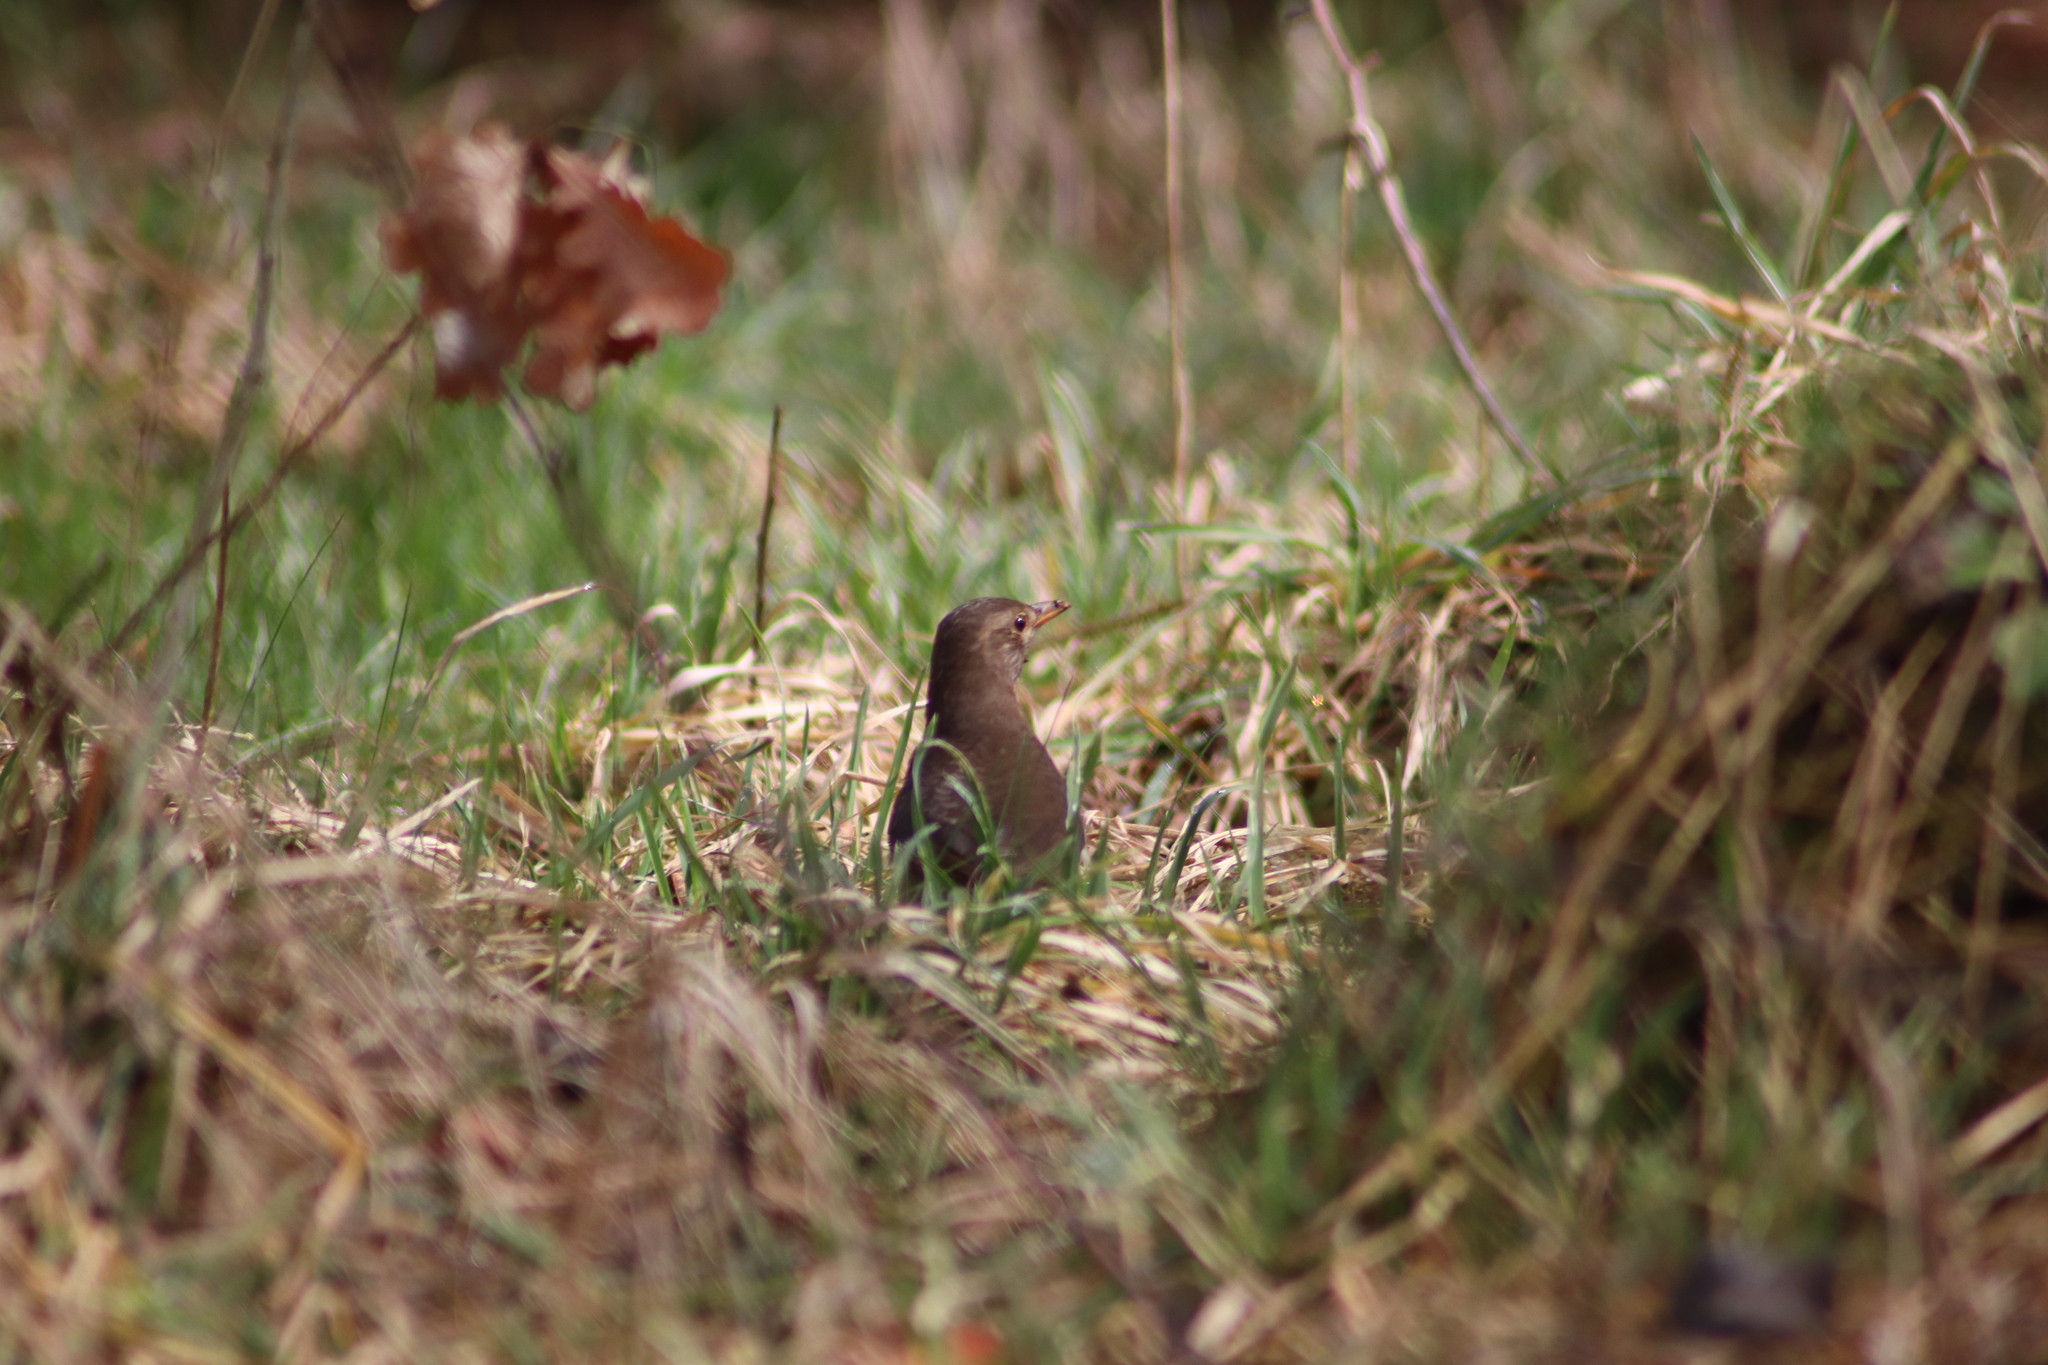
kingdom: Animalia
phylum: Chordata
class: Aves
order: Passeriformes
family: Turdidae
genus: Turdus
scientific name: Turdus merula
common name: Common blackbird
